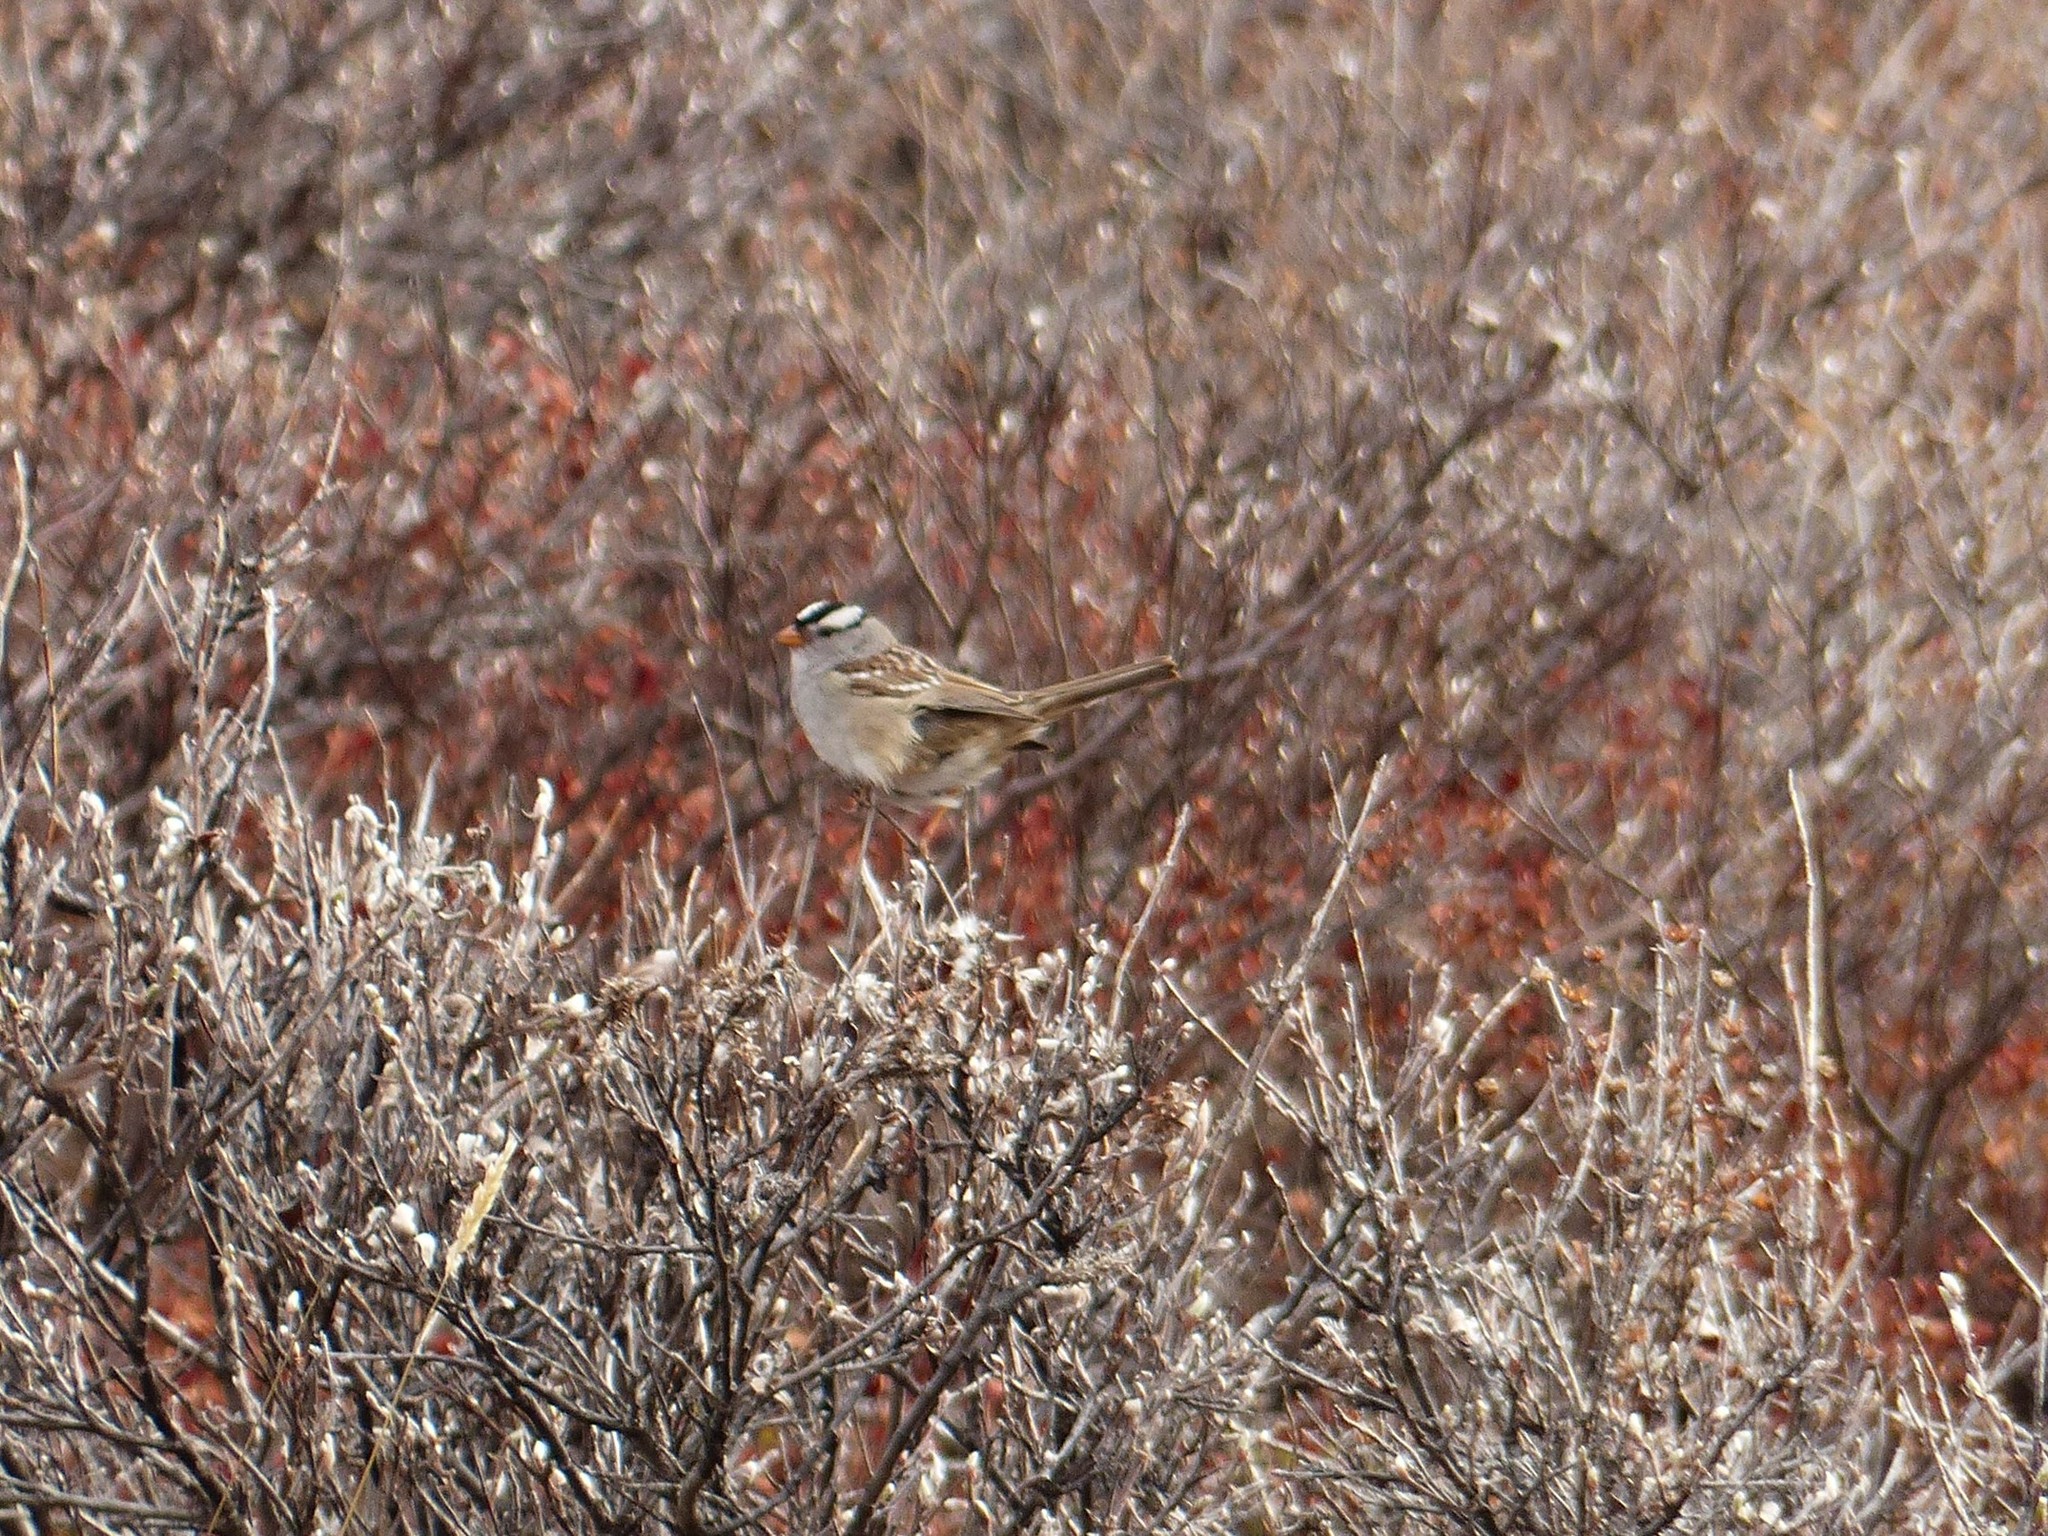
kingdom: Animalia
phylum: Chordata
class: Aves
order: Passeriformes
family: Passerellidae
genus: Zonotrichia
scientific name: Zonotrichia leucophrys
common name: White-crowned sparrow
